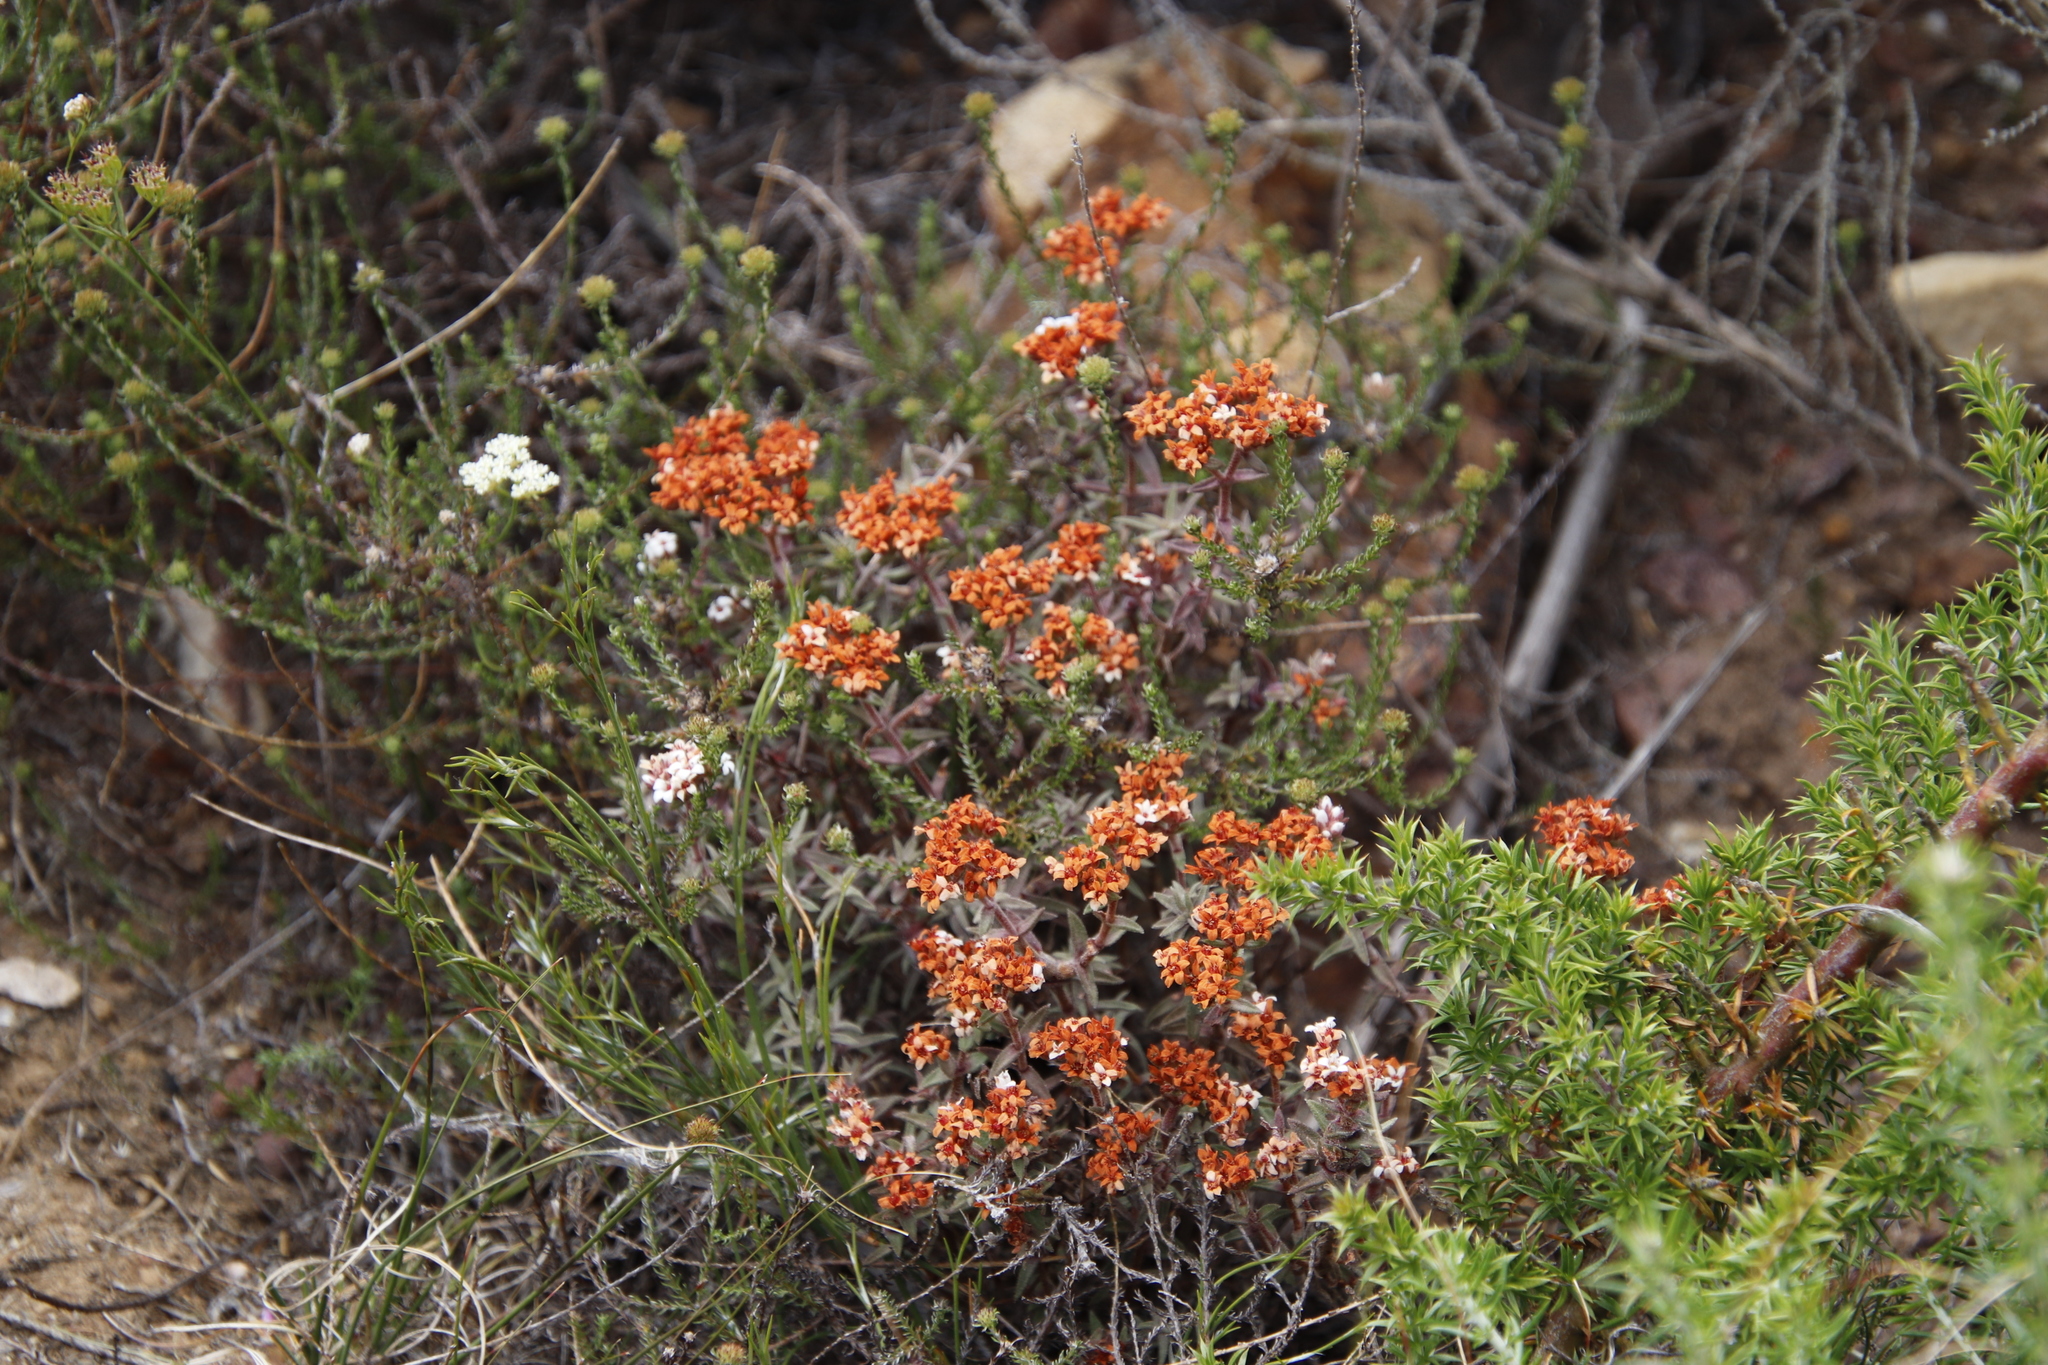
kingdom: Plantae
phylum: Tracheophyta
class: Magnoliopsida
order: Saxifragales
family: Crassulaceae
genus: Crassula
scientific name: Crassula pruinosa
